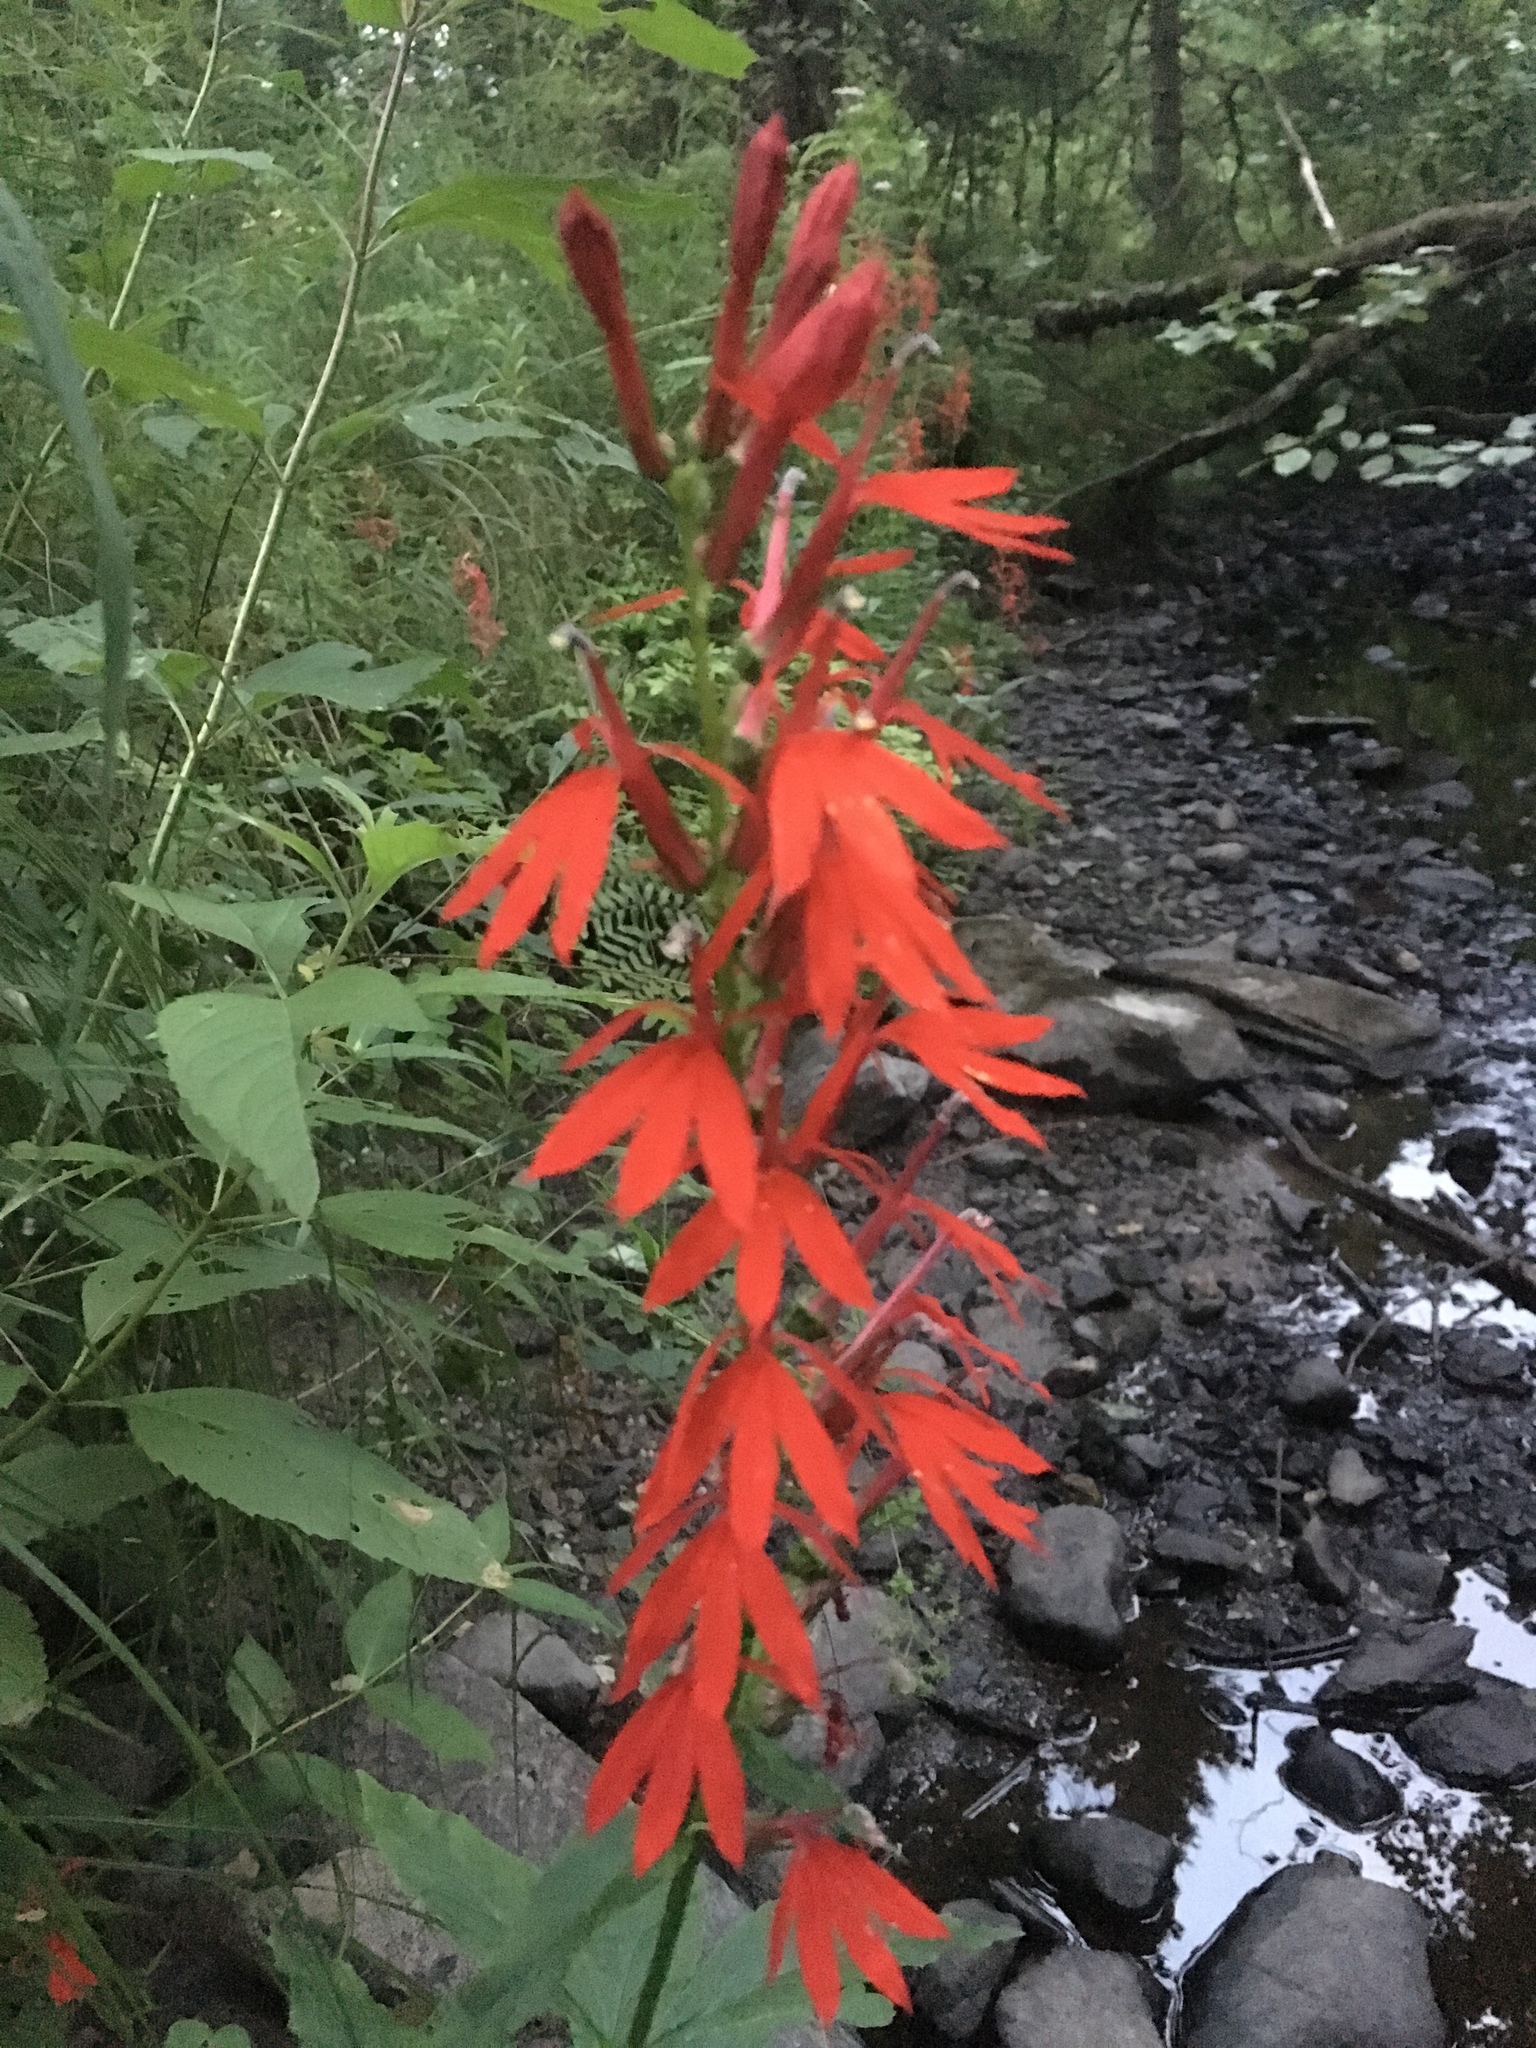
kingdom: Plantae
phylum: Tracheophyta
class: Magnoliopsida
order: Asterales
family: Campanulaceae
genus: Lobelia
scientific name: Lobelia cardinalis
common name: Cardinal flower
